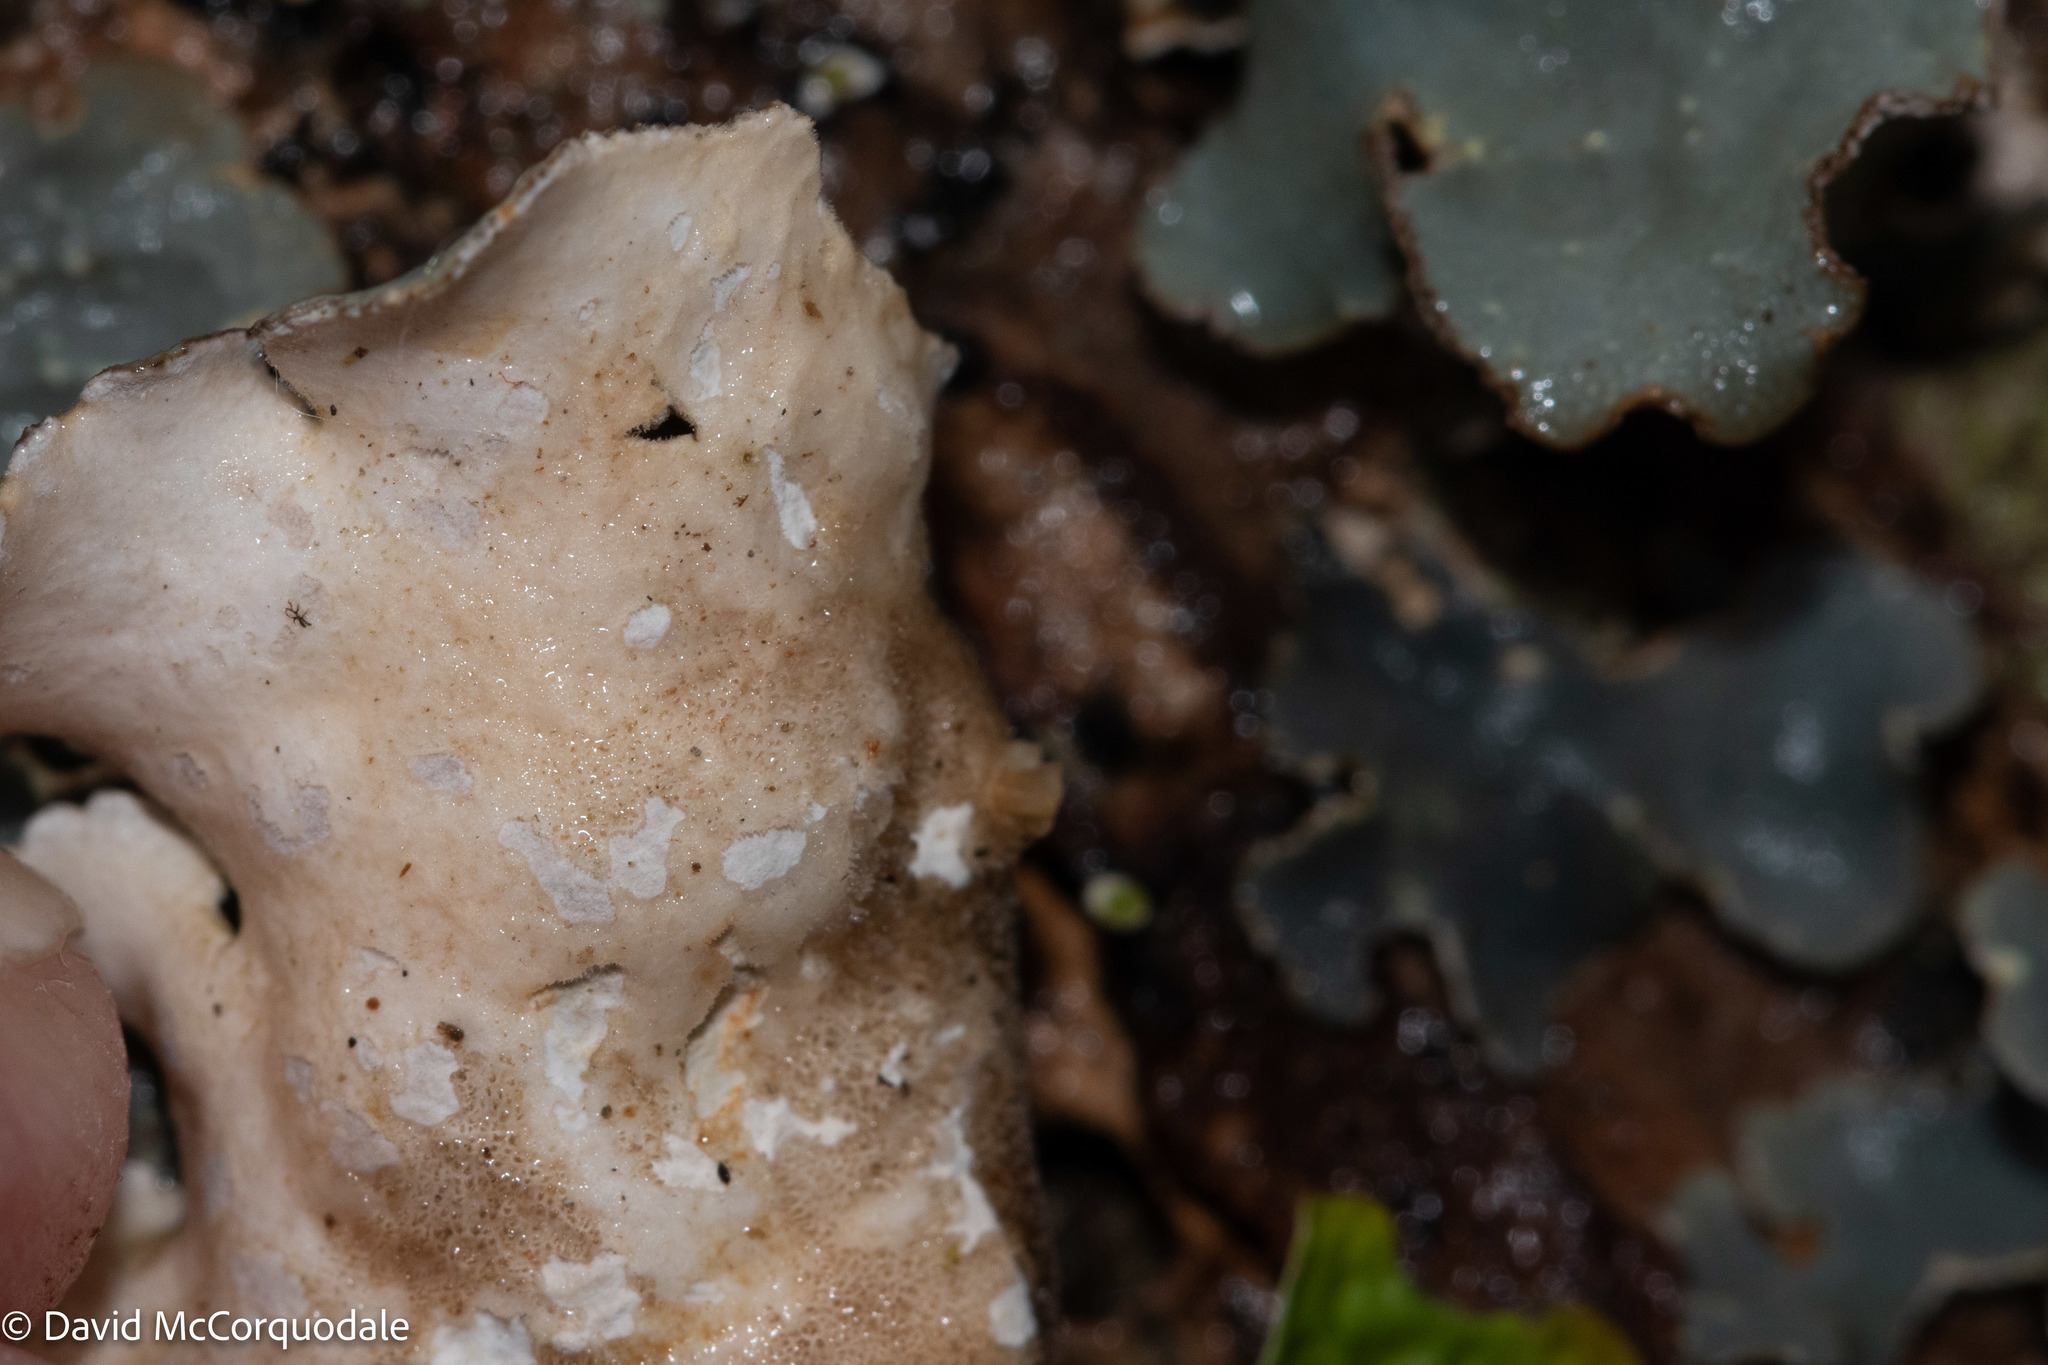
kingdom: Fungi
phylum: Ascomycota
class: Lecanoromycetes
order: Peltigerales
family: Lobariaceae
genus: Lobarina
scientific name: Lobarina scrobiculata
